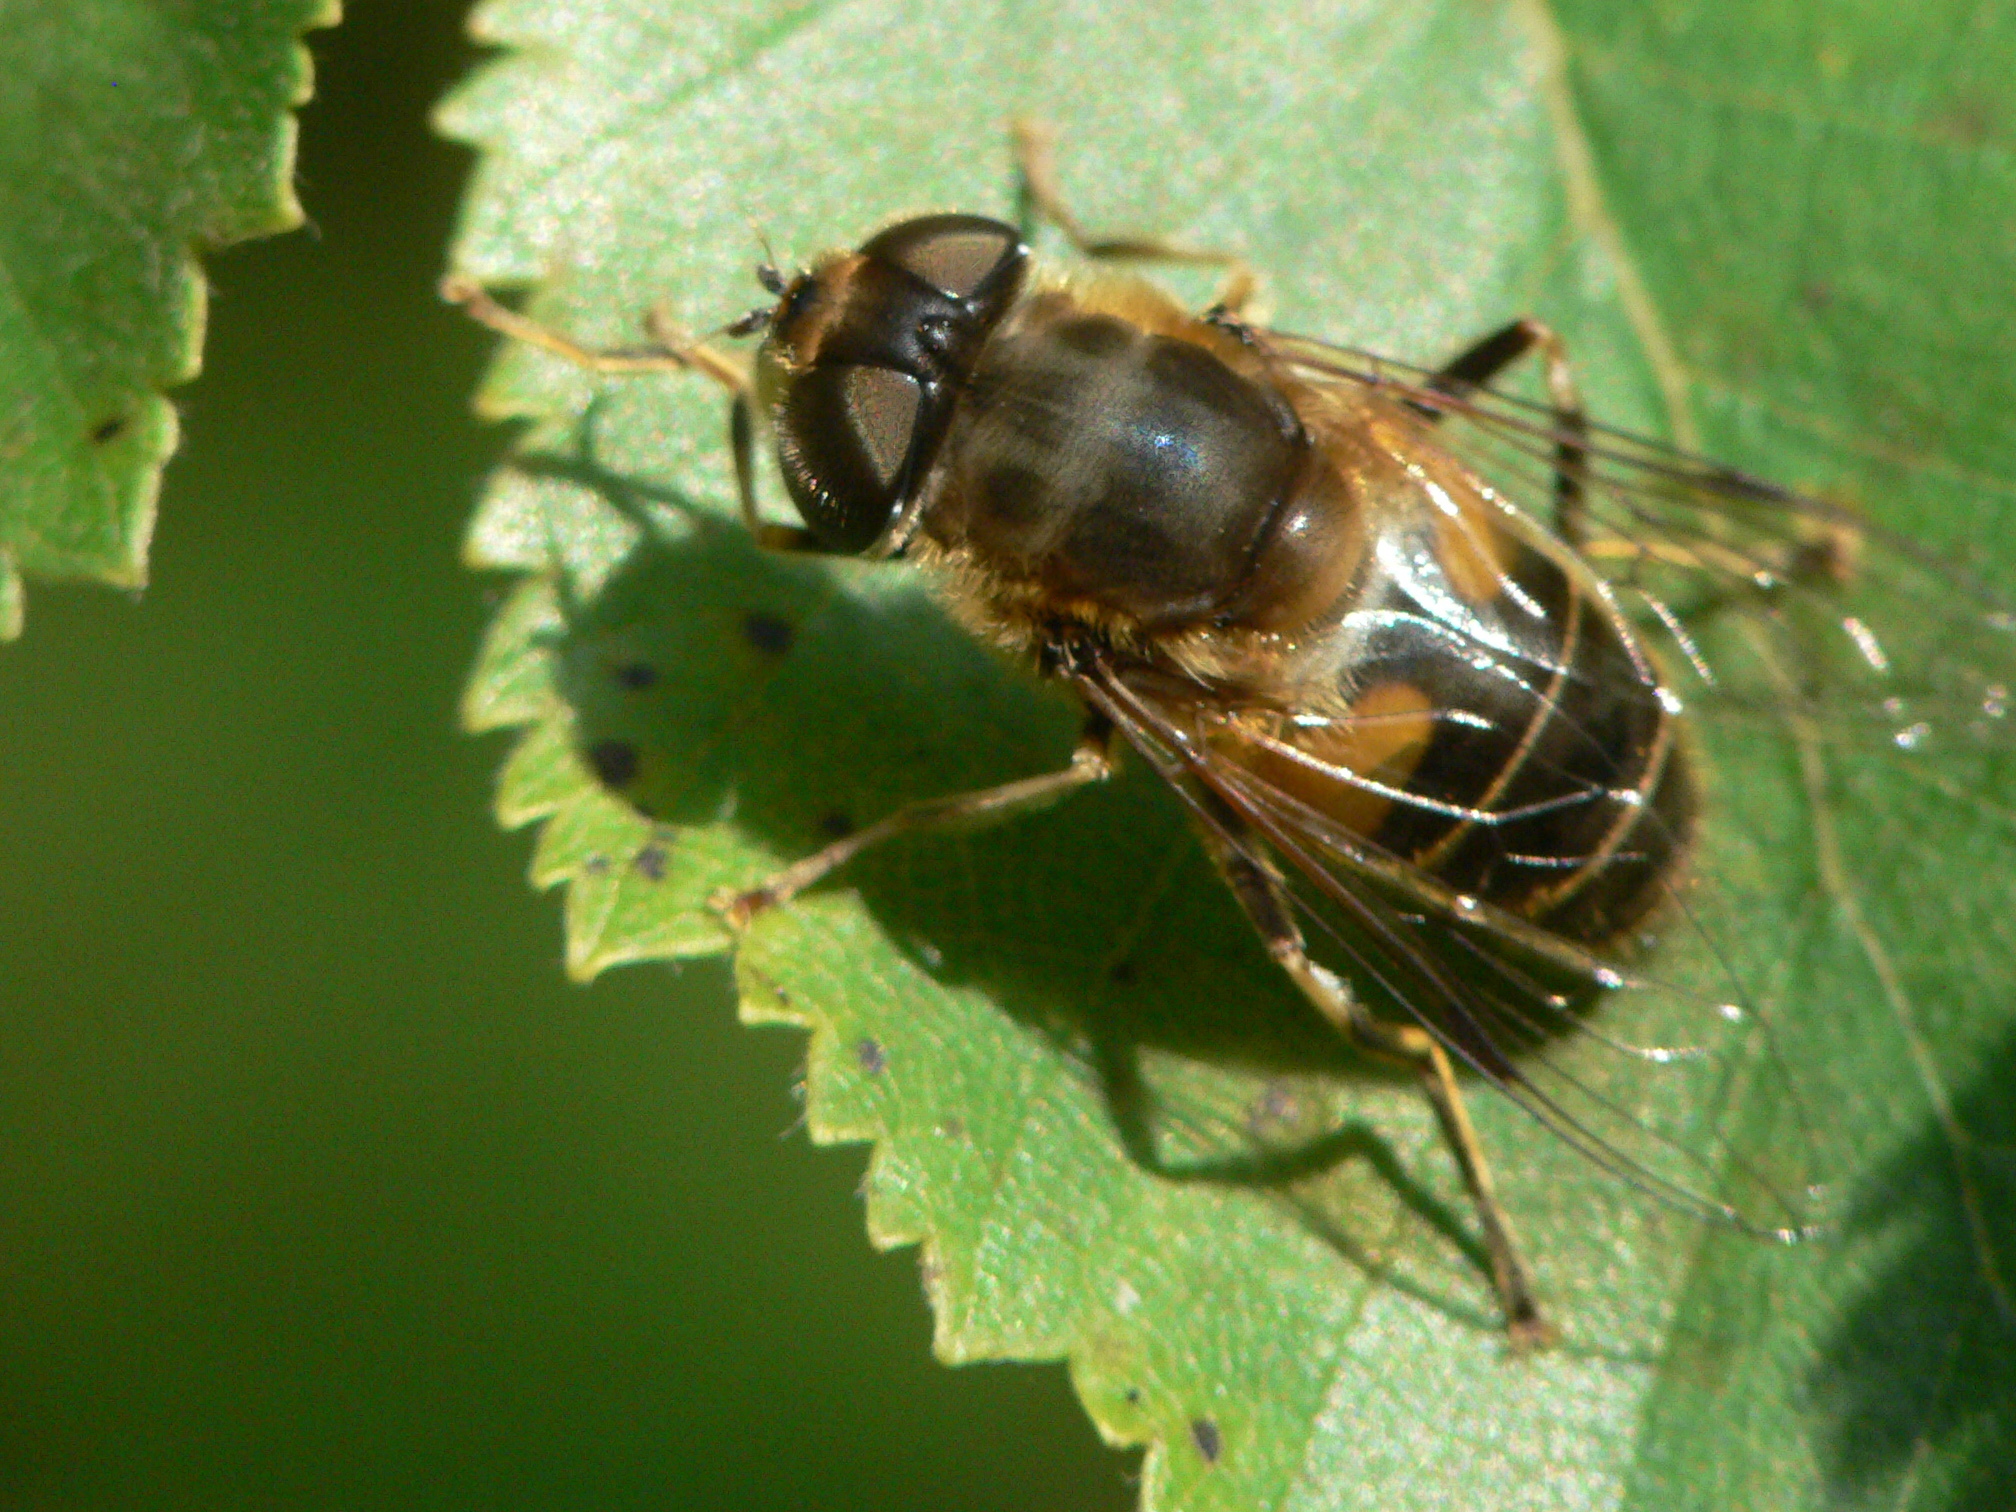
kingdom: Animalia
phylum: Arthropoda
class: Insecta
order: Diptera
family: Syrphidae
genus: Eristalis
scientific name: Eristalis pertinax
